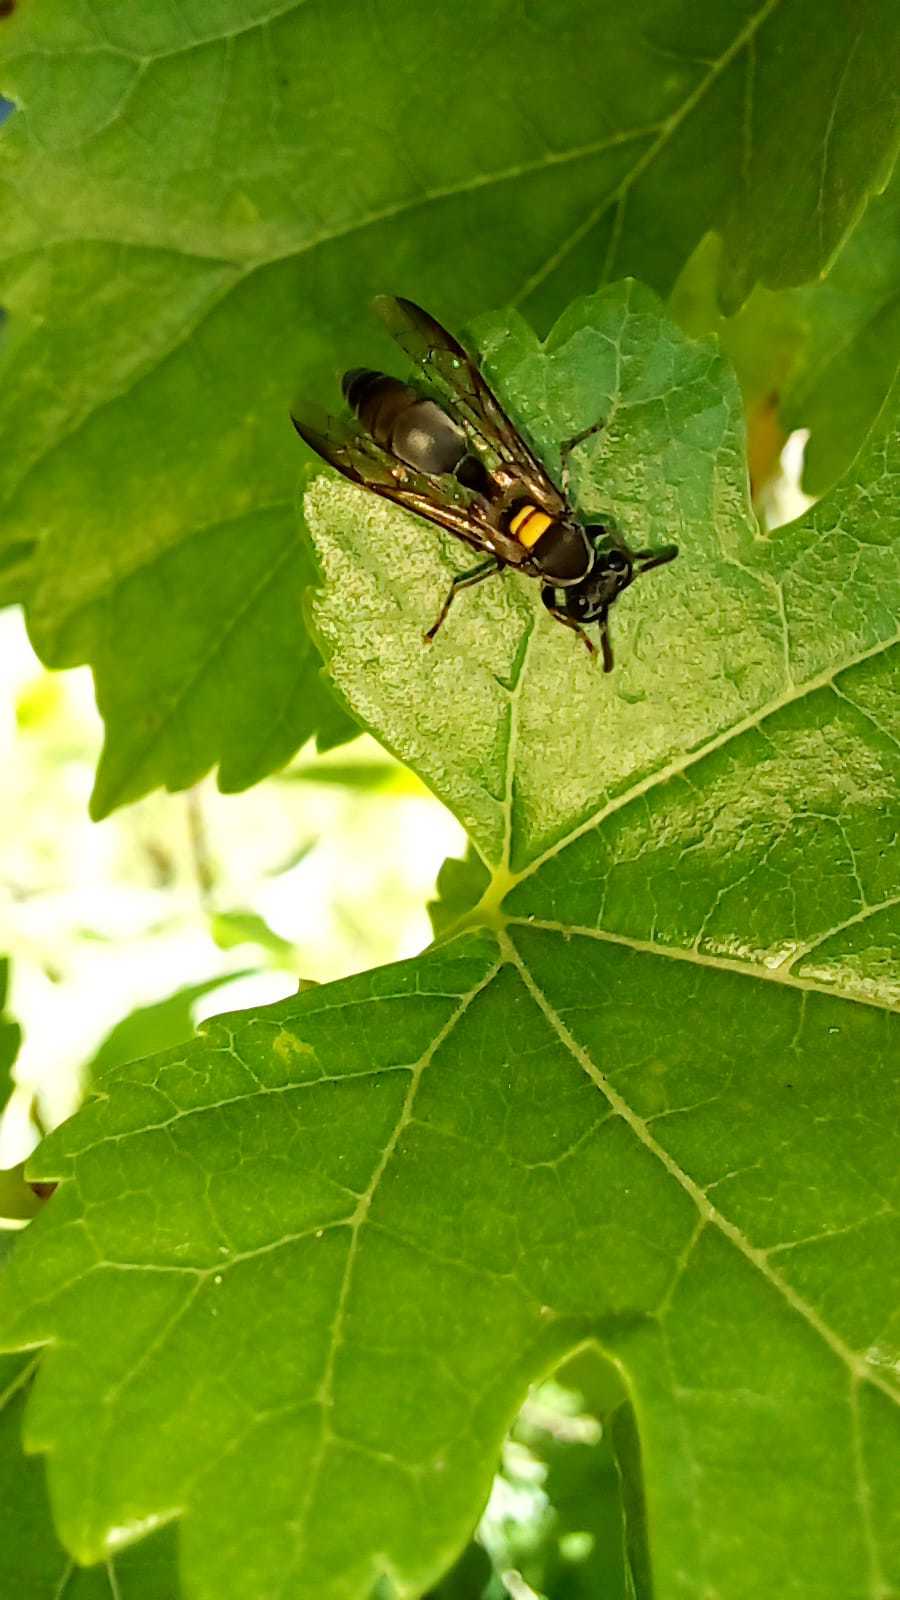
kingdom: Animalia
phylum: Arthropoda
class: Insecta
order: Hymenoptera
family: Eumenidae
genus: Polybia
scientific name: Polybia scutellaris
